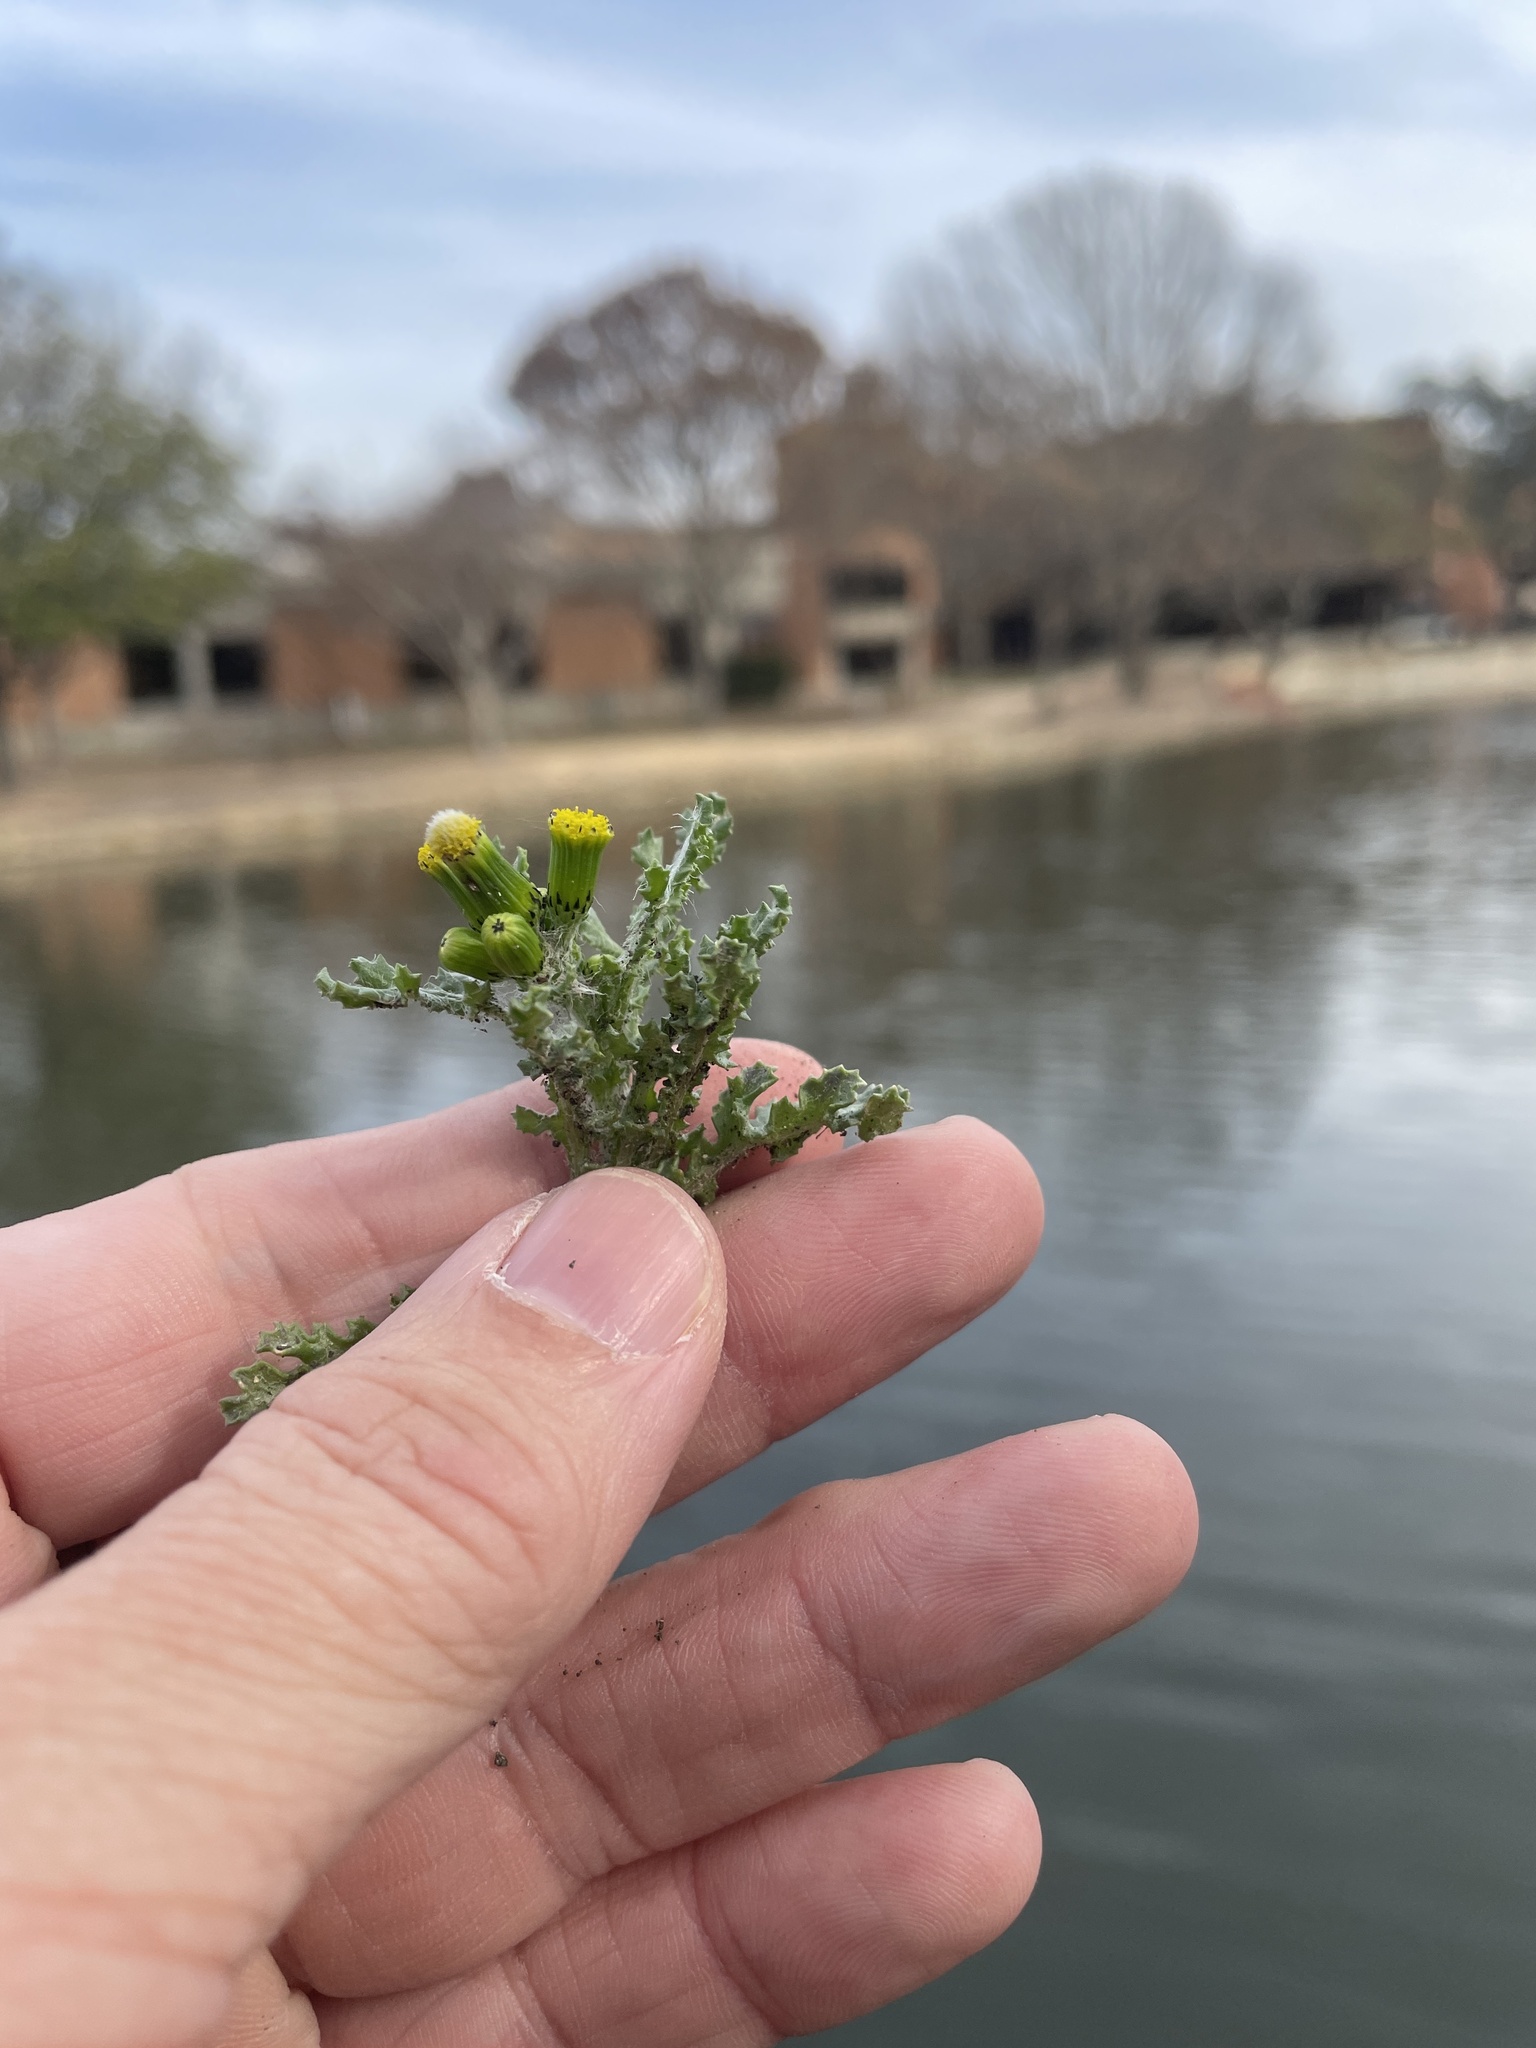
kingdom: Plantae
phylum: Tracheophyta
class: Magnoliopsida
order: Asterales
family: Asteraceae
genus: Senecio
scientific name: Senecio vulgaris
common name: Old-man-in-the-spring
